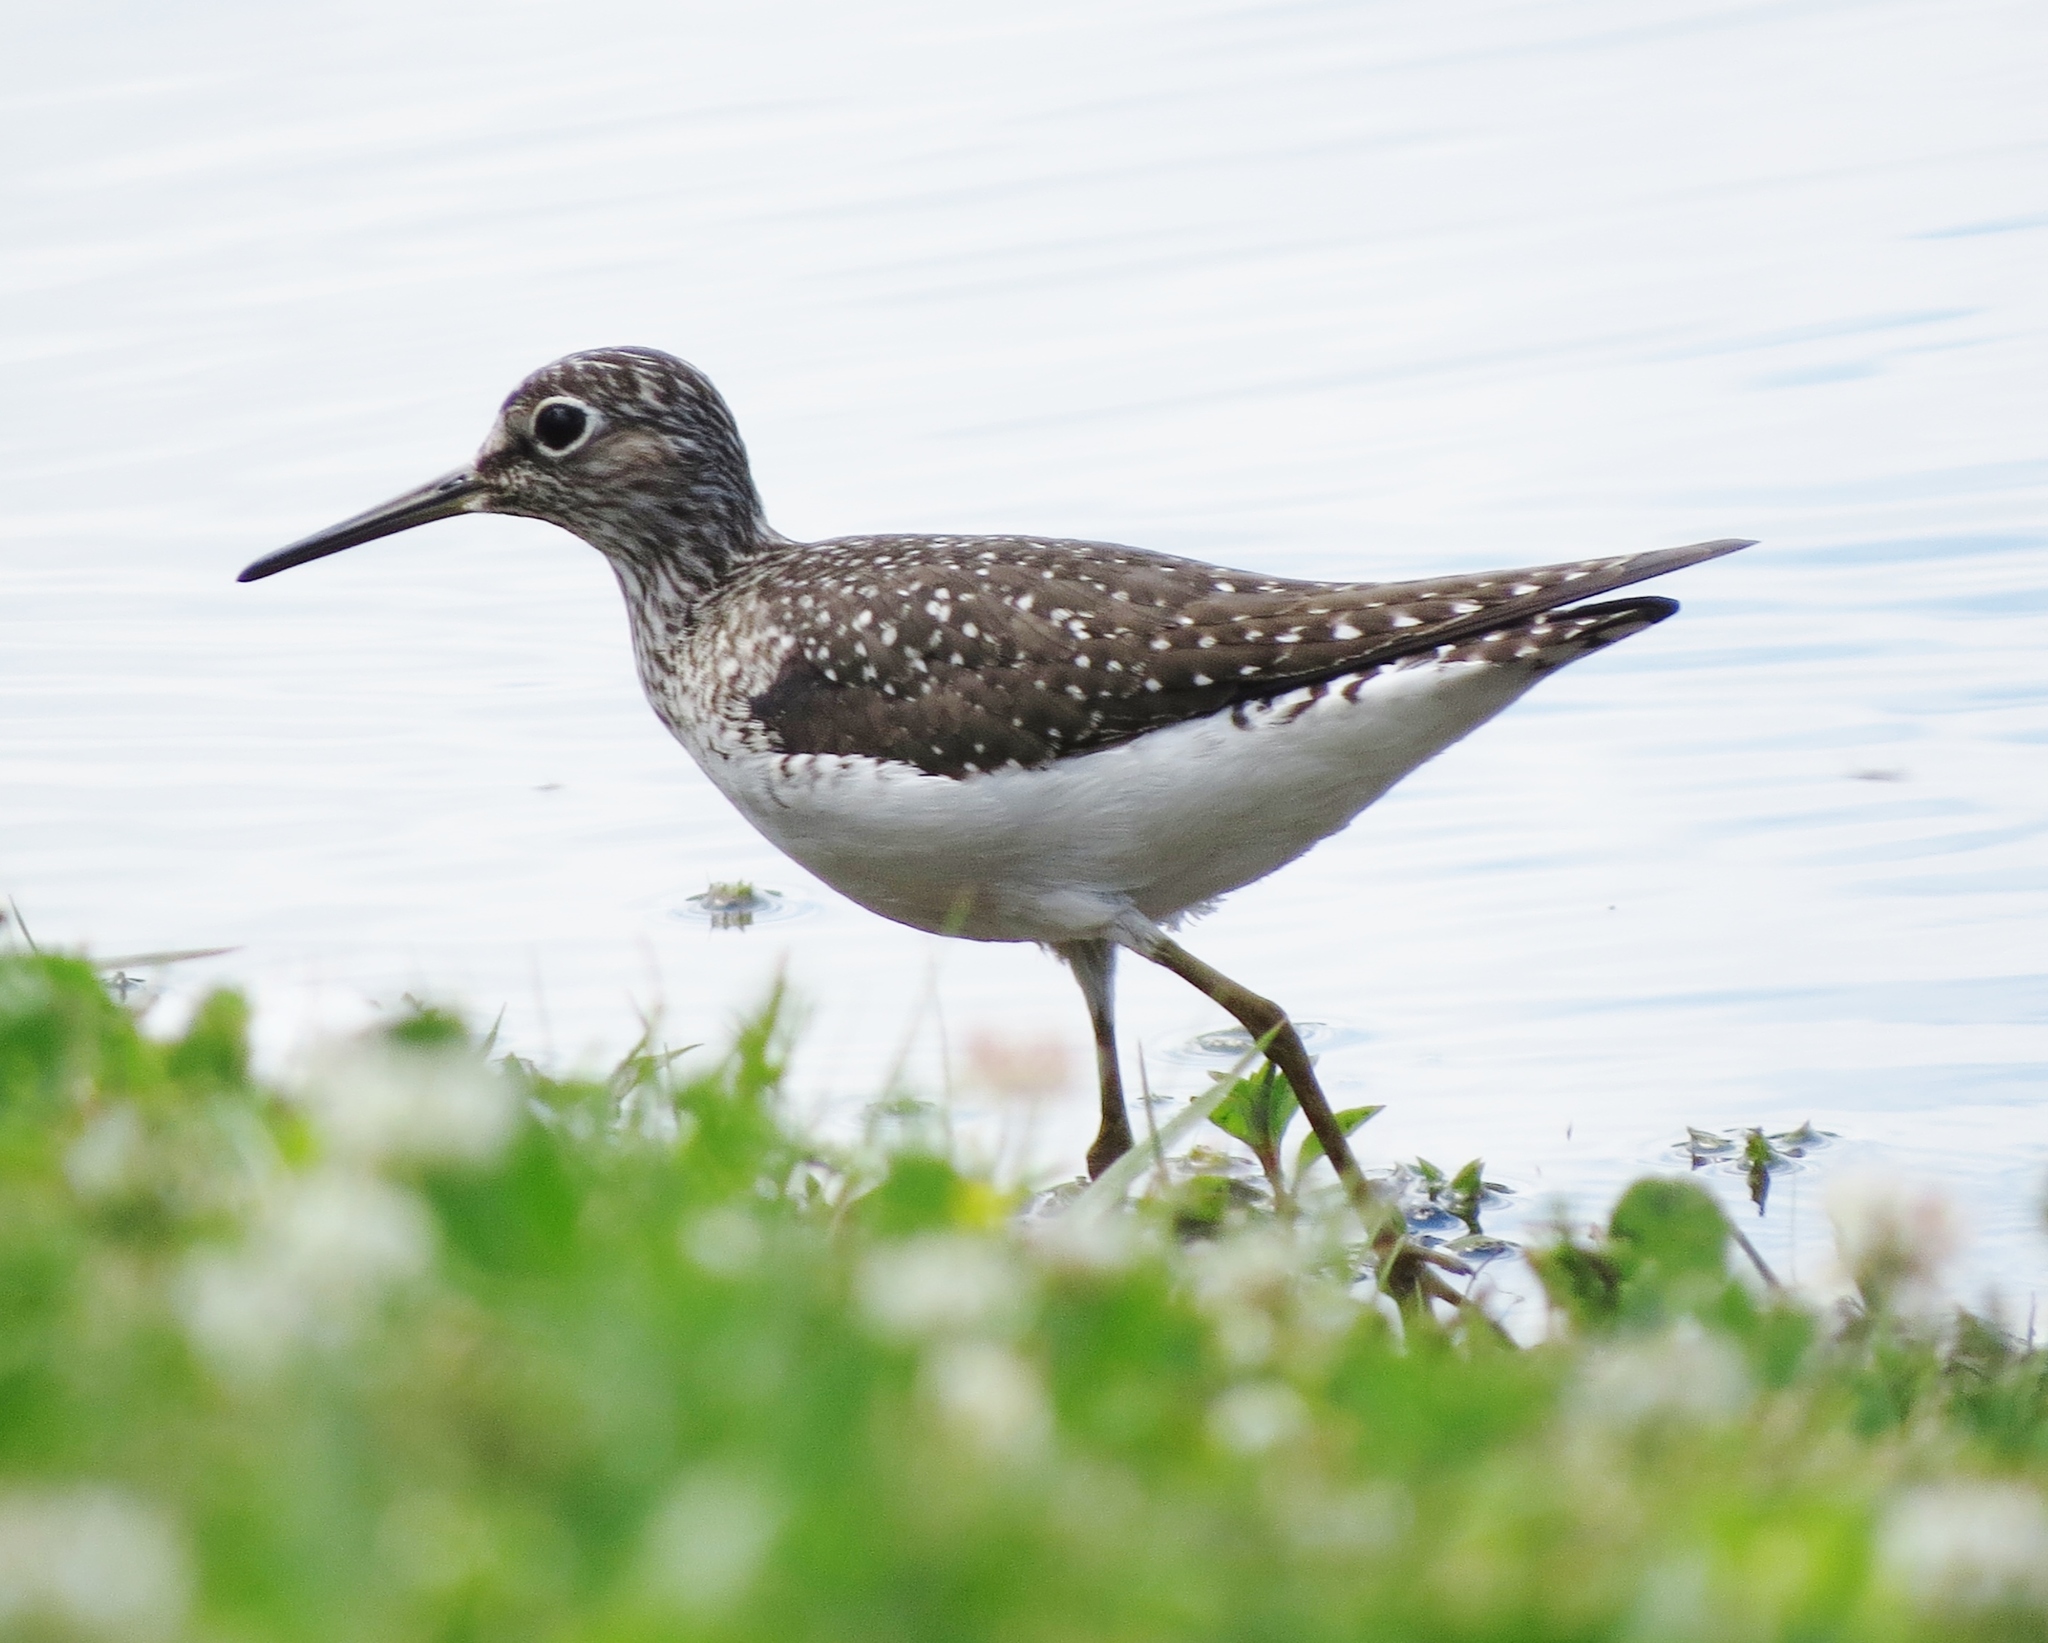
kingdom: Animalia
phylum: Chordata
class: Aves
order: Charadriiformes
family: Scolopacidae
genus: Tringa
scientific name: Tringa solitaria
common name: Solitary sandpiper
